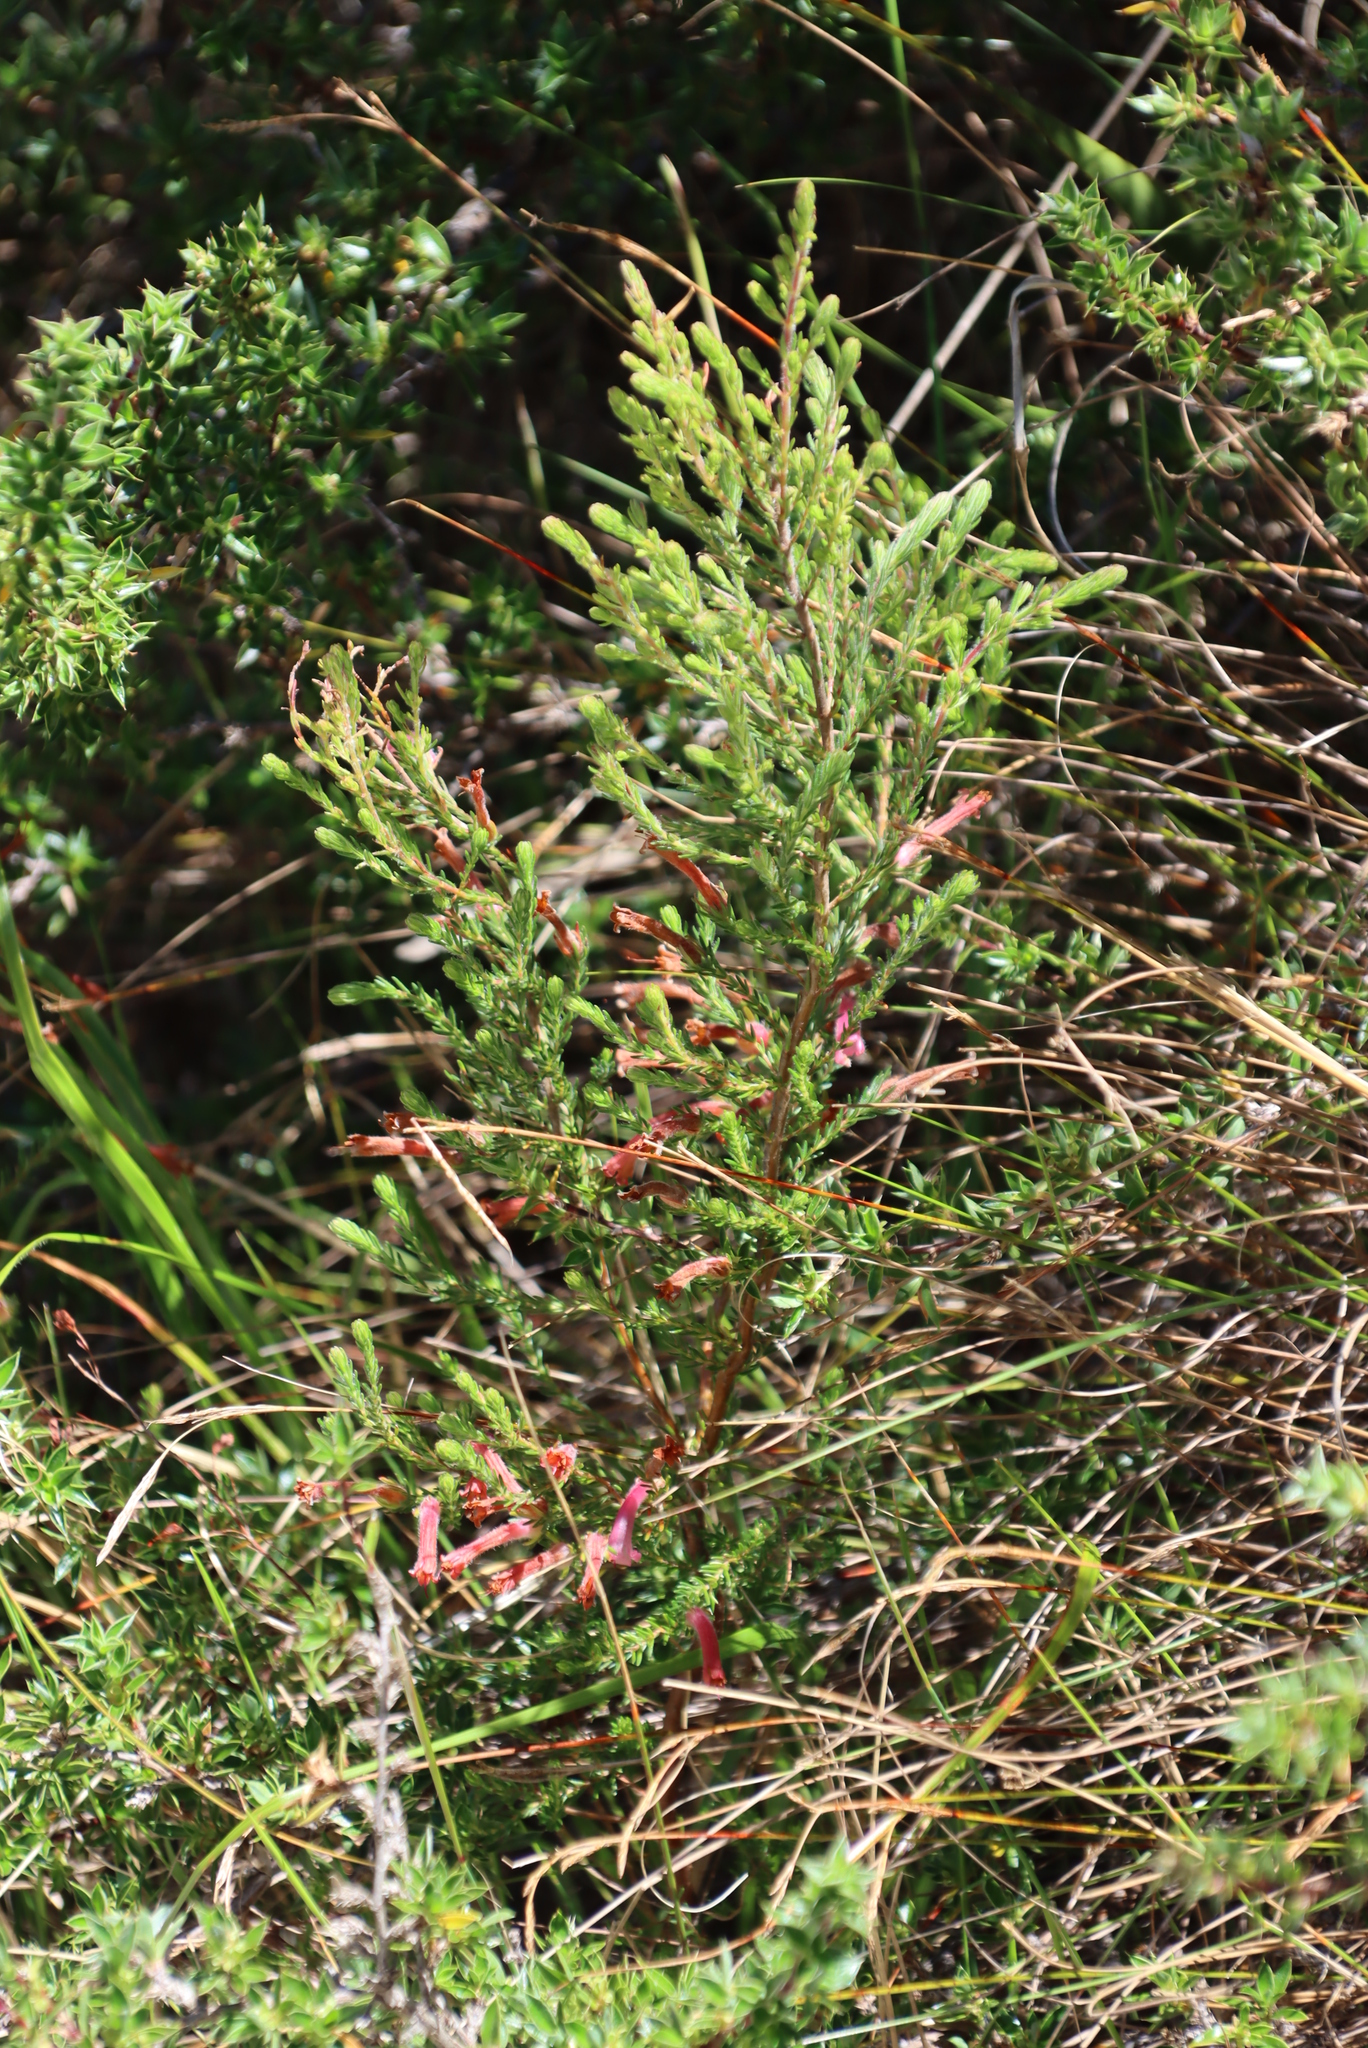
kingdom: Plantae
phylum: Tracheophyta
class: Magnoliopsida
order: Ericales
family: Ericaceae
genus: Erica
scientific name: Erica curviflora
